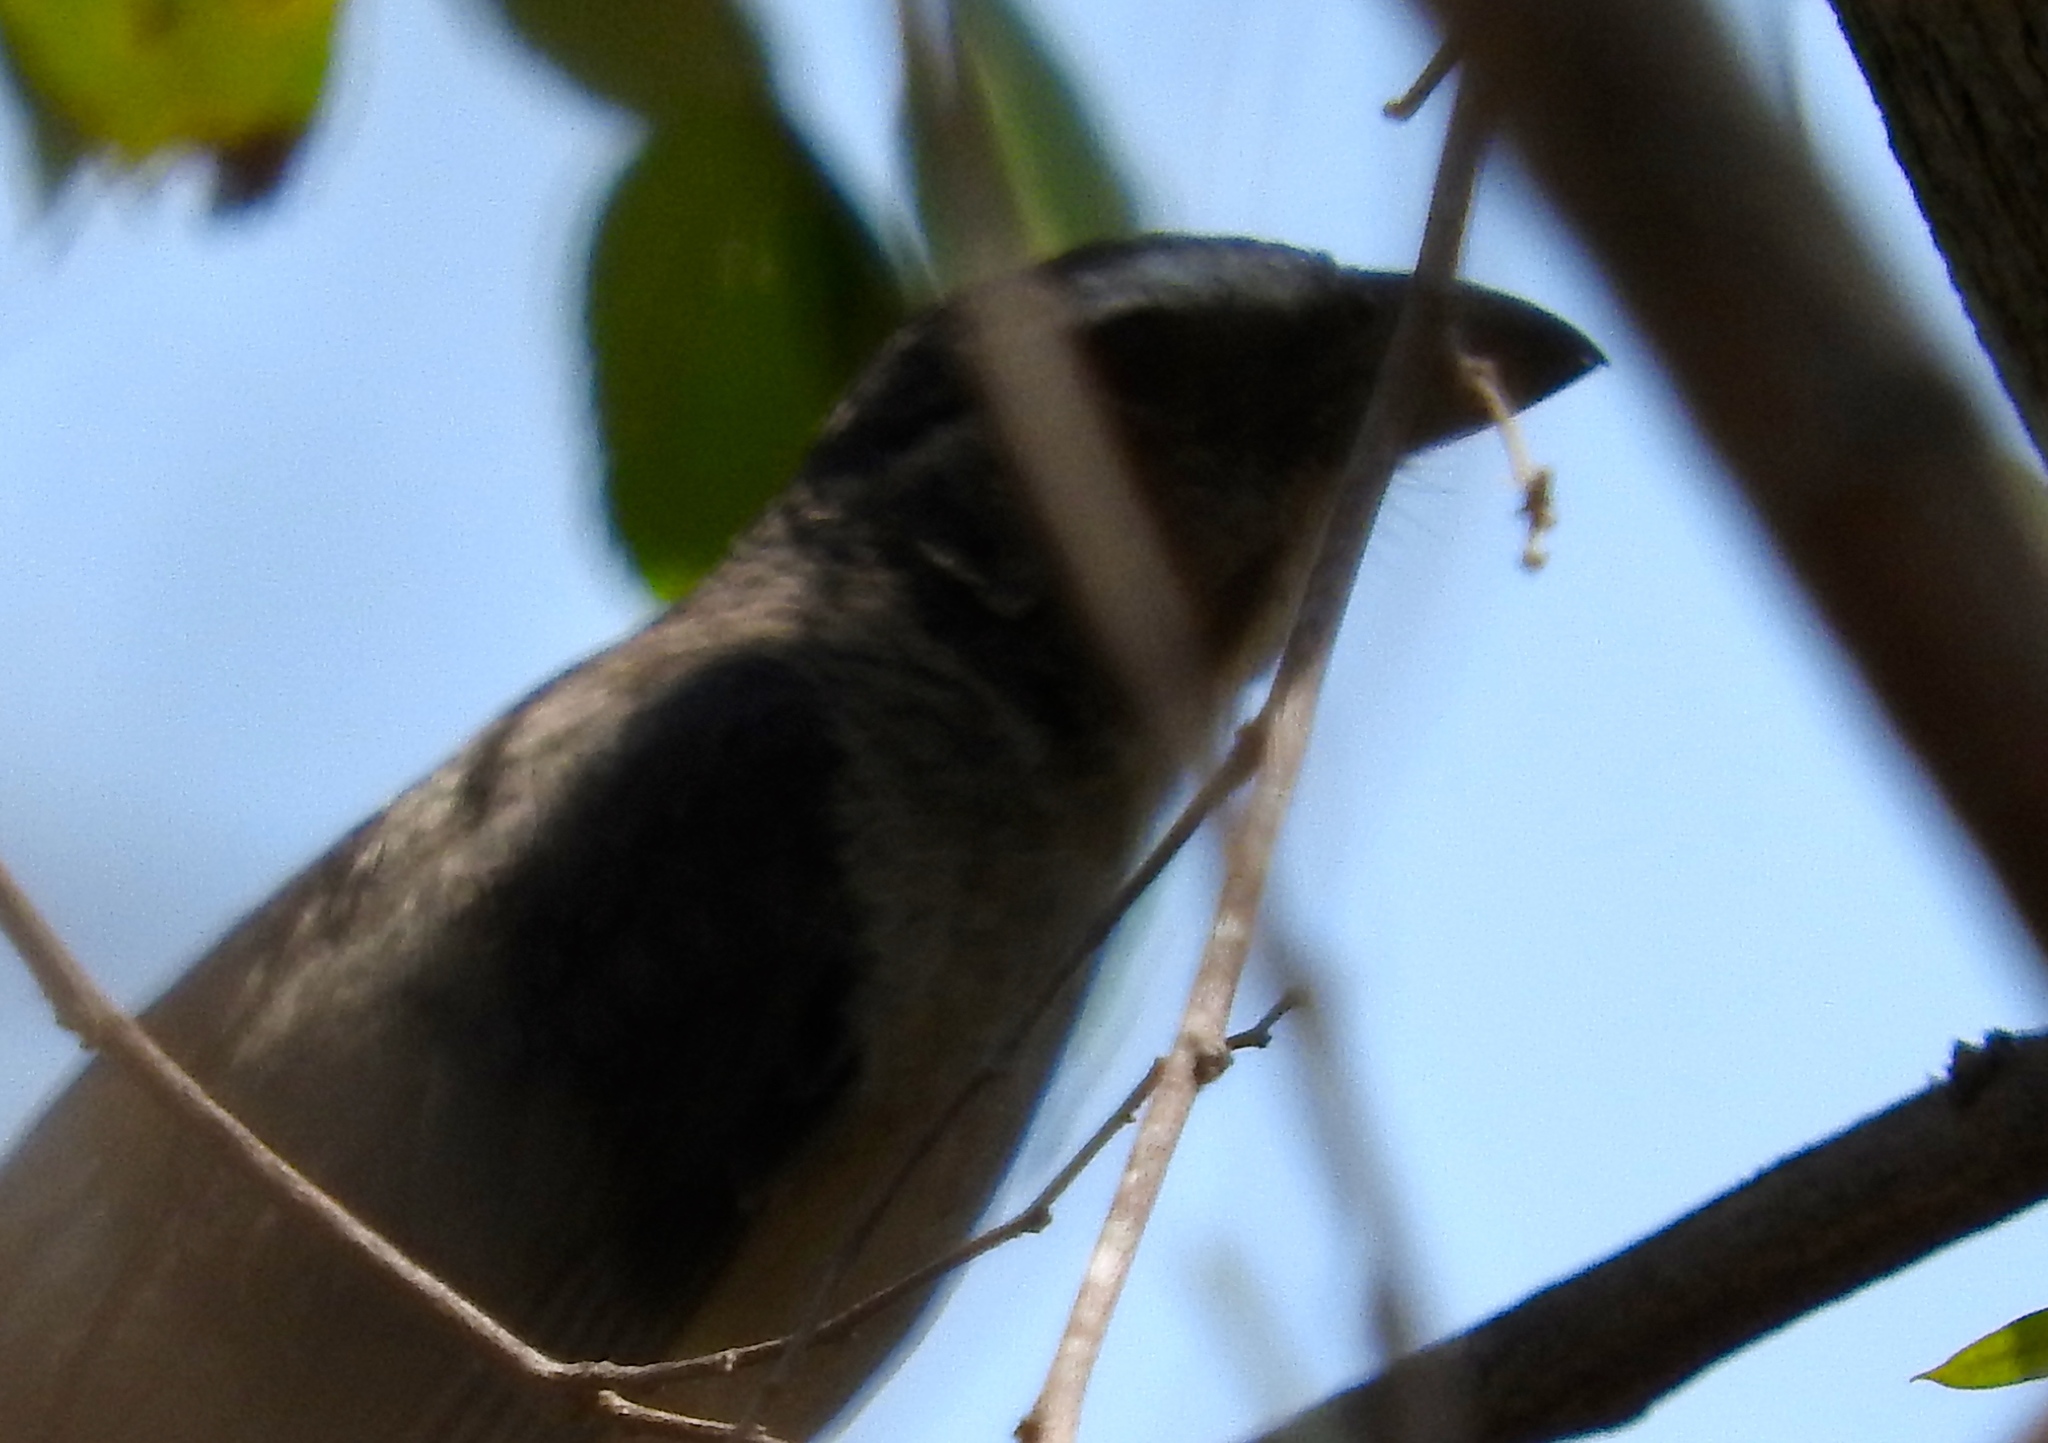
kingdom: Animalia
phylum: Chordata
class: Aves
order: Passeriformes
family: Thraupidae
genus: Saltator
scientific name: Saltator grandis
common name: Cinnamon-bellied saltator
